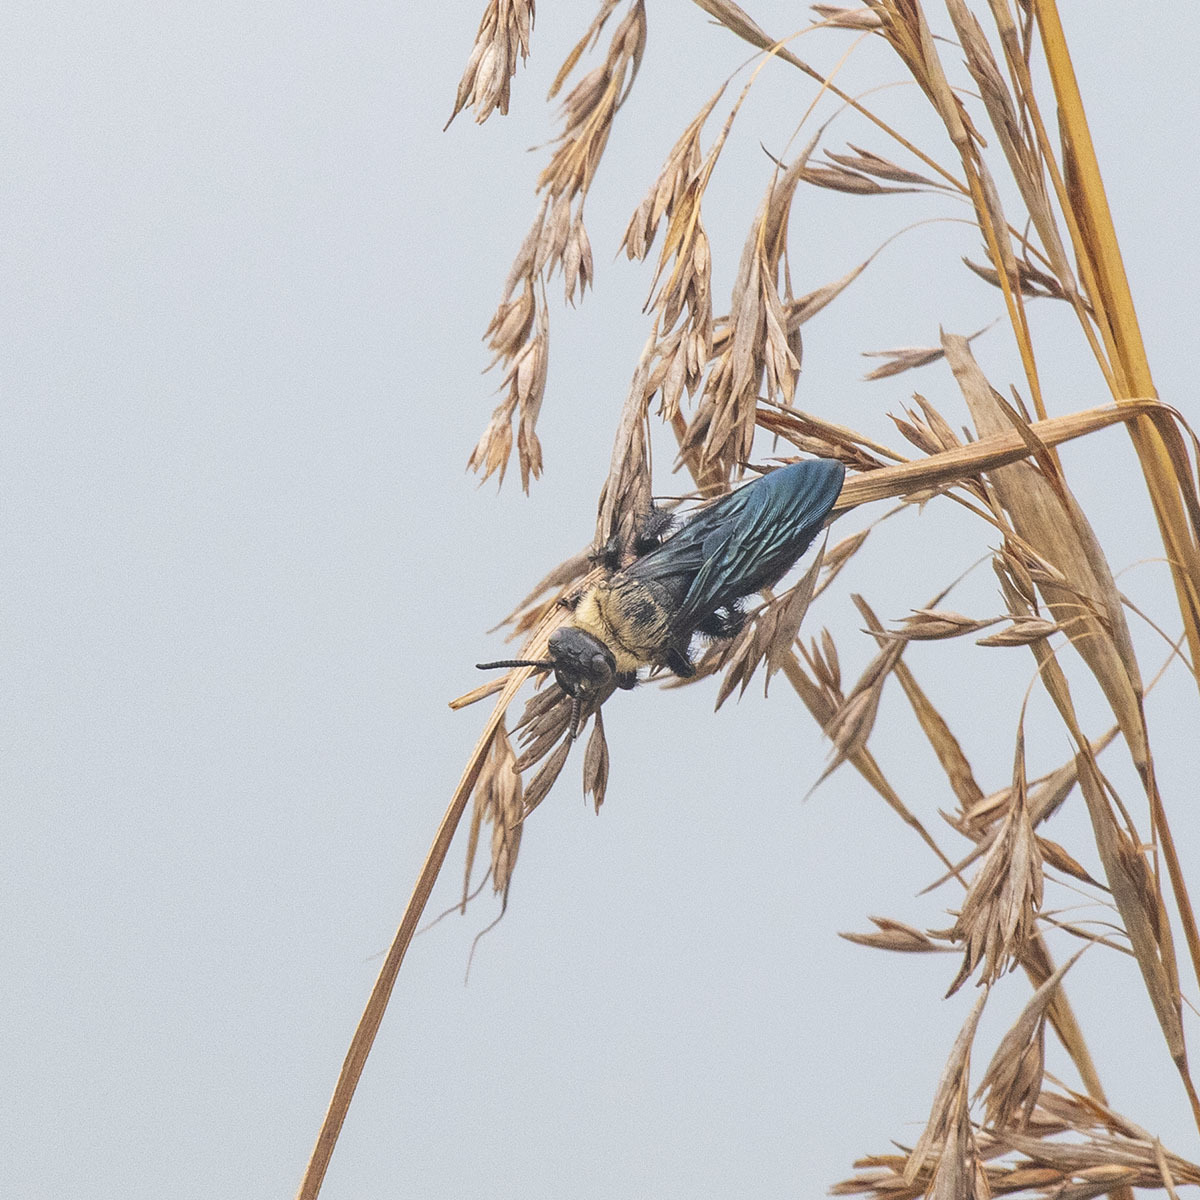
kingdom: Animalia
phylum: Arthropoda
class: Insecta
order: Hymenoptera
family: Scoliidae
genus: Campsomeriella
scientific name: Campsomeriella collaris
